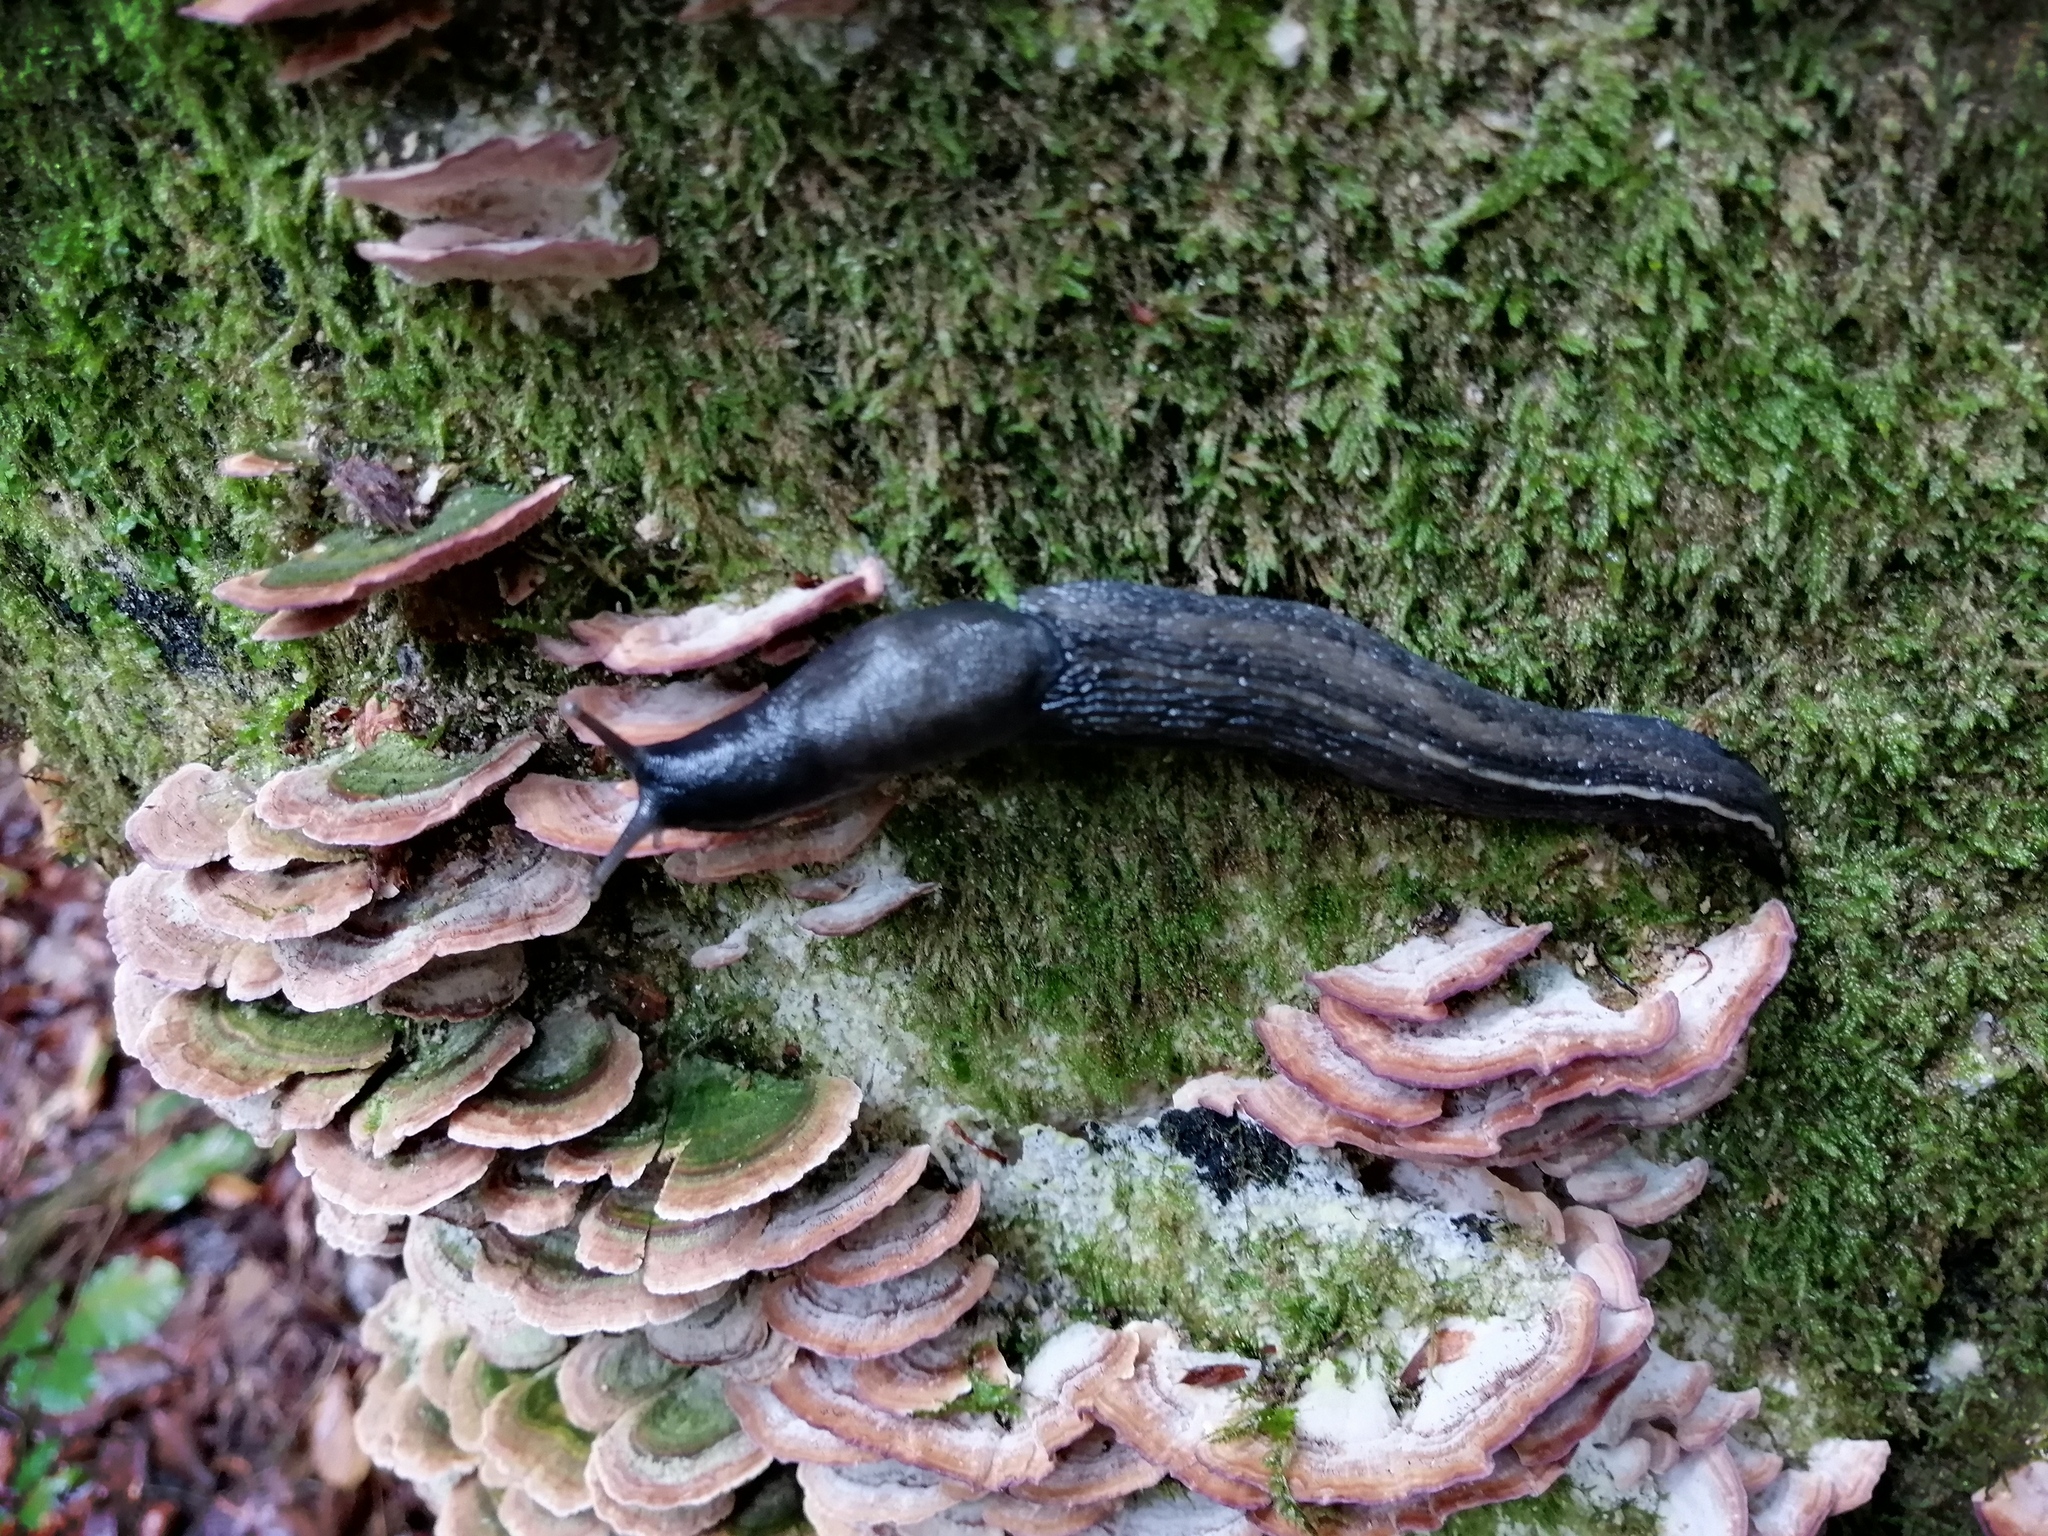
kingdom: Animalia
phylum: Mollusca
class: Gastropoda
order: Stylommatophora
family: Limacidae
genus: Limax
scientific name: Limax cinereoniger
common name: Ash-black slug
